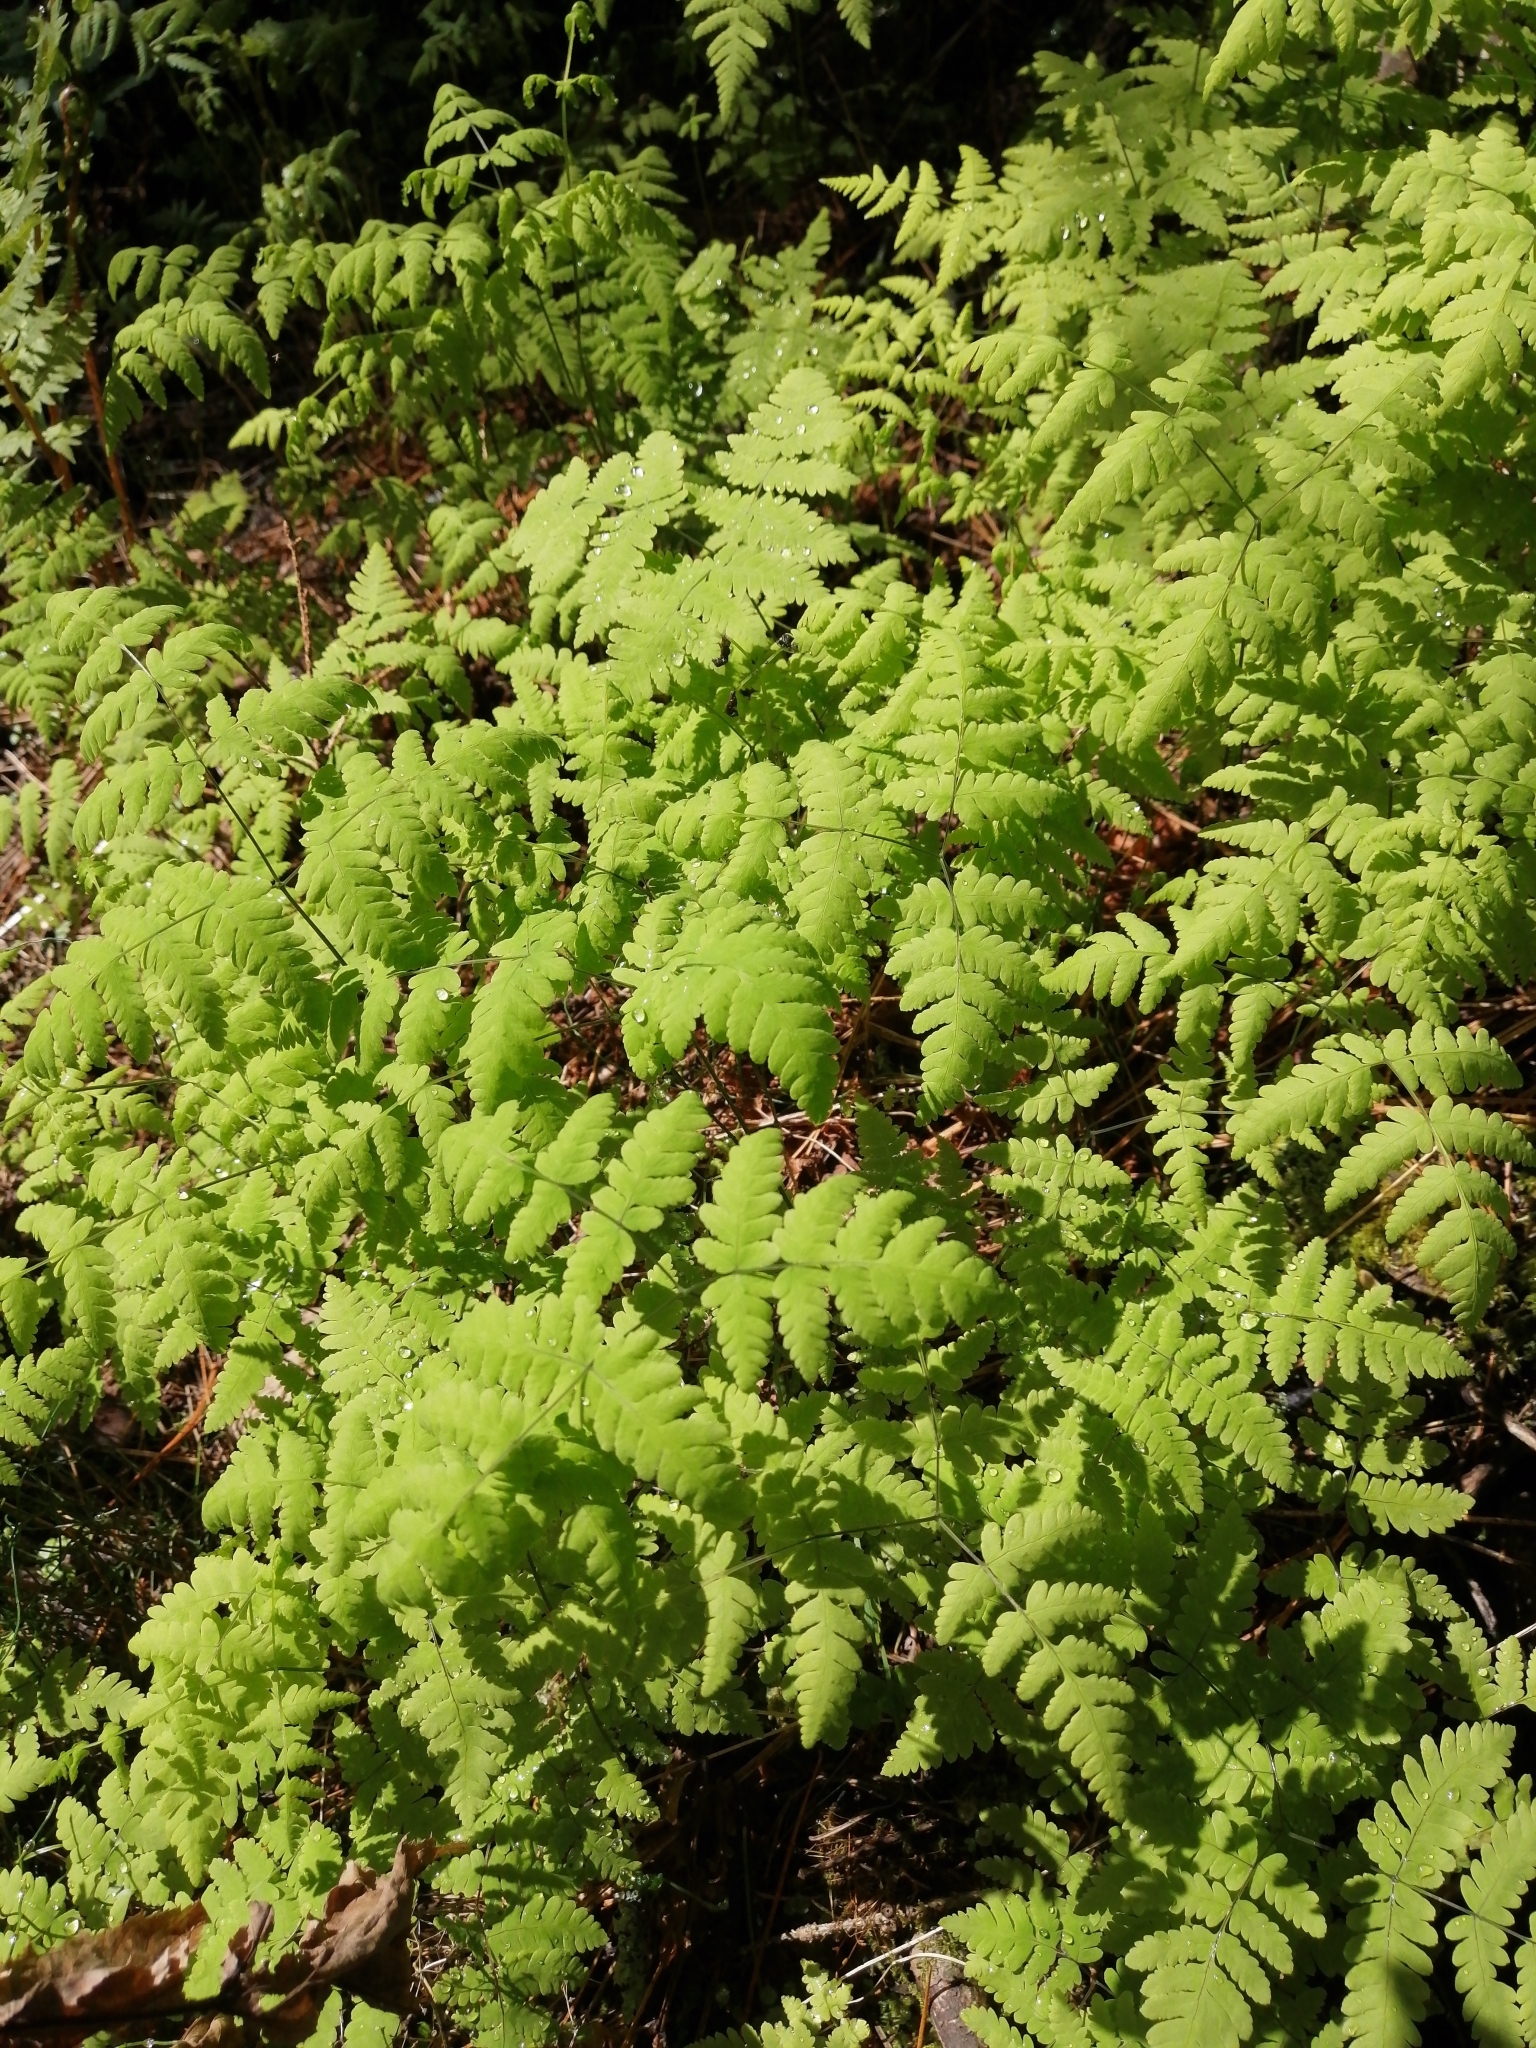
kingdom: Plantae
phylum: Tracheophyta
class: Polypodiopsida
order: Polypodiales
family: Cystopteridaceae
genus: Gymnocarpium
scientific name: Gymnocarpium dryopteris
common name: Oak fern
